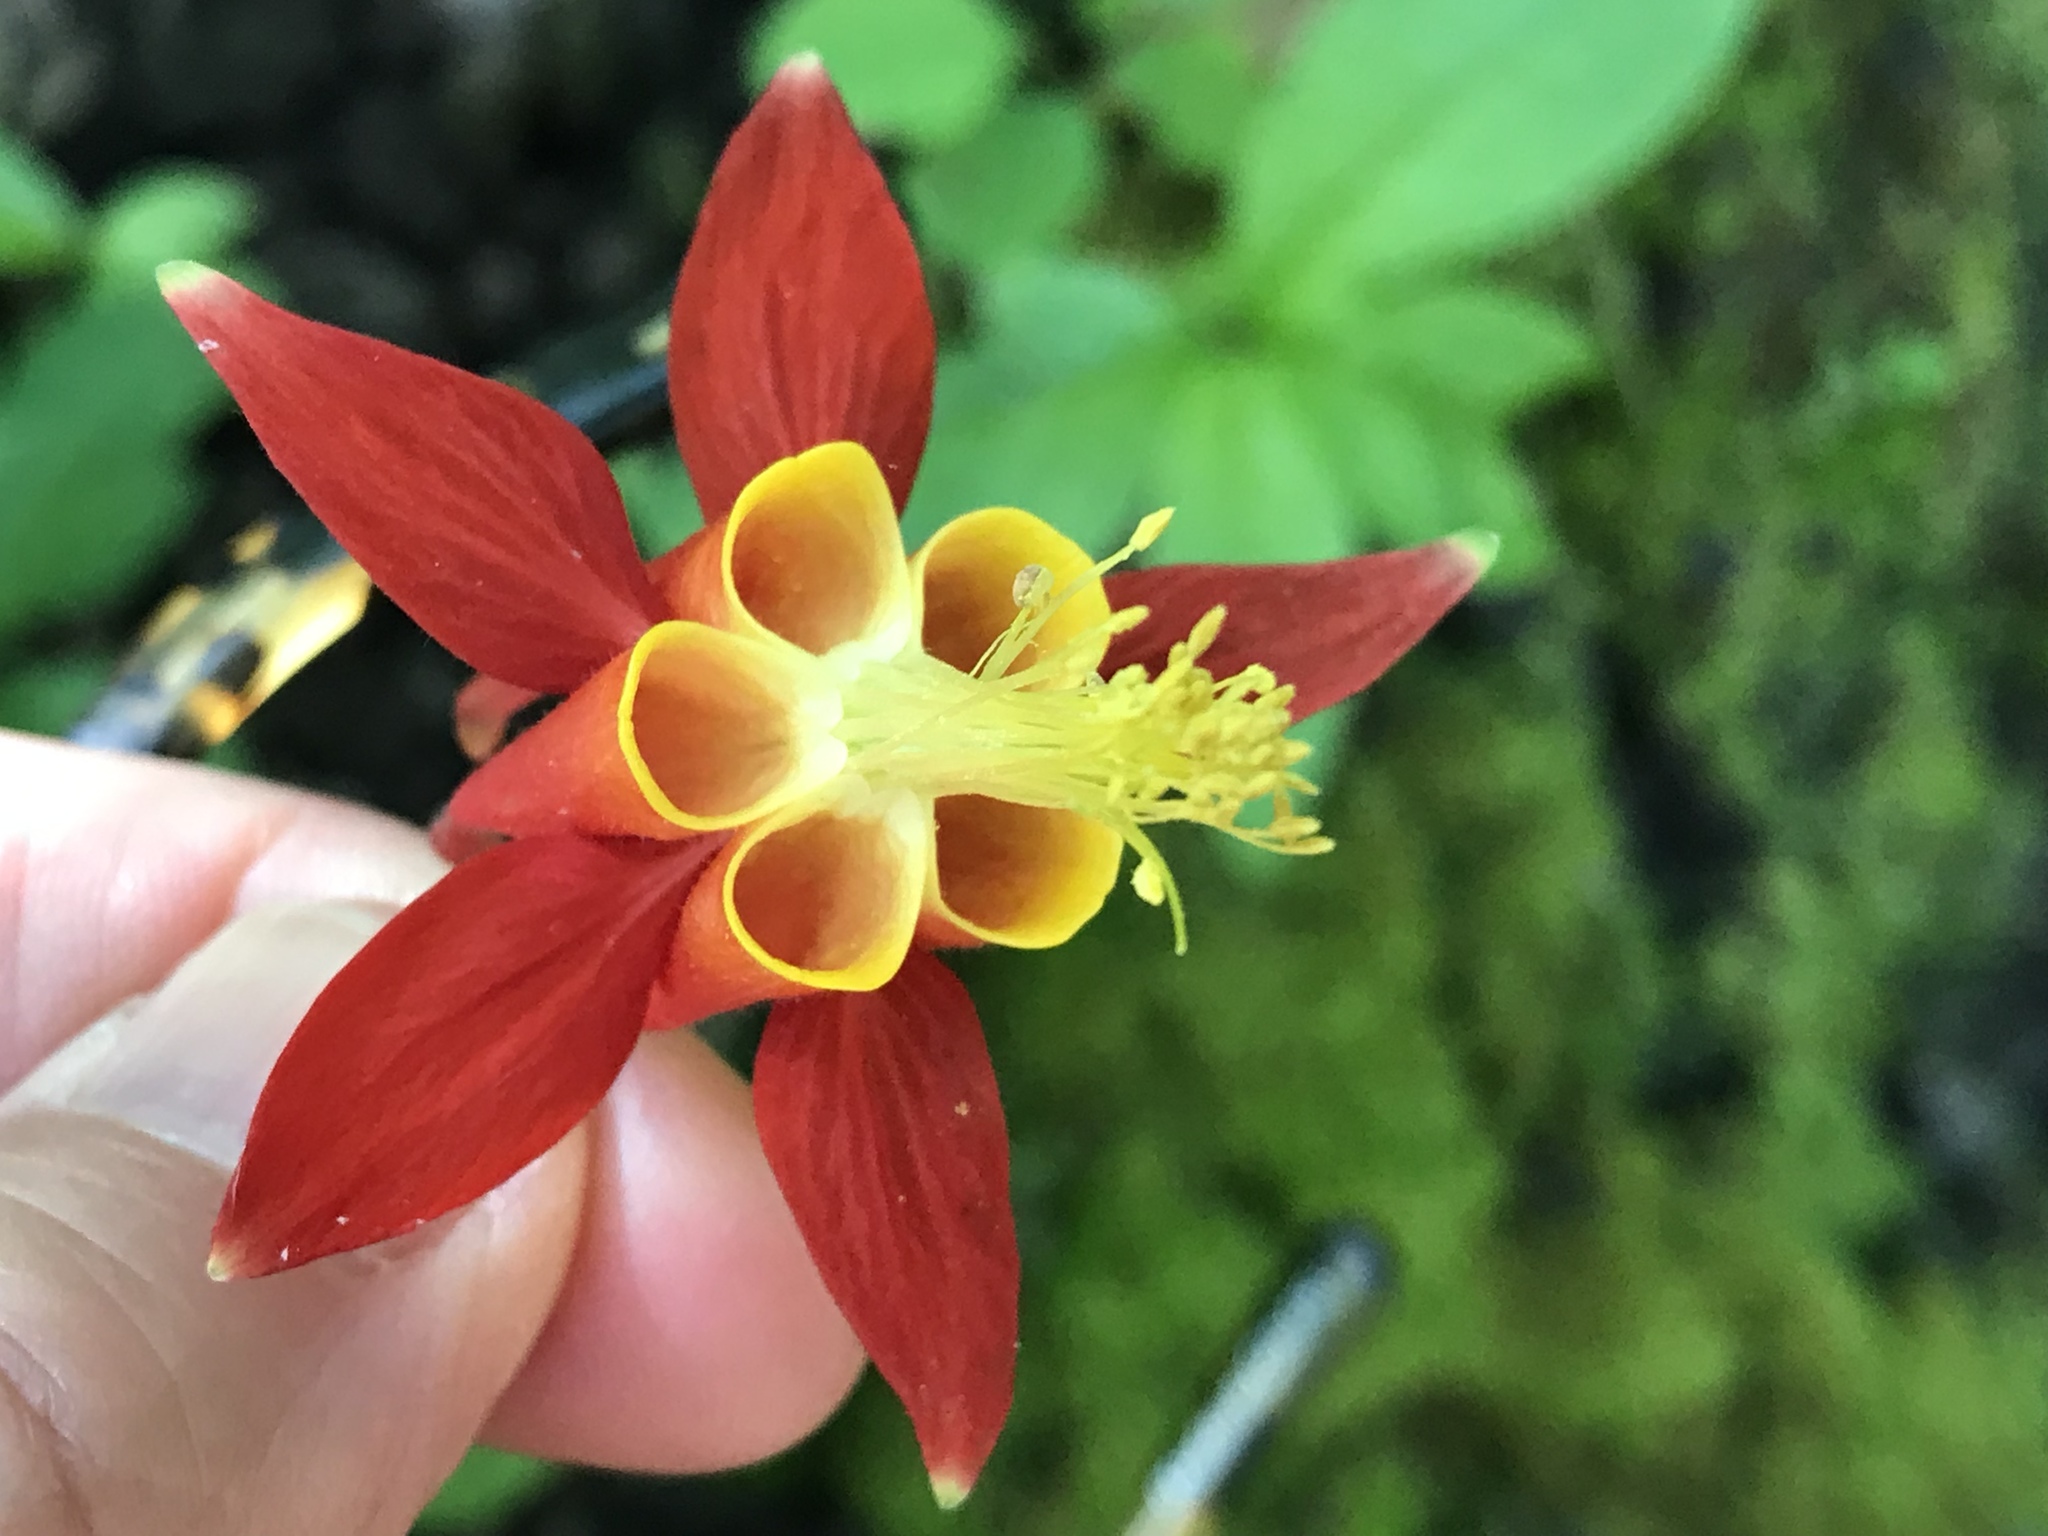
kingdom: Plantae
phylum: Tracheophyta
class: Magnoliopsida
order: Ranunculales
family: Ranunculaceae
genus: Aquilegia
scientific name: Aquilegia formosa
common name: Sitka columbine
